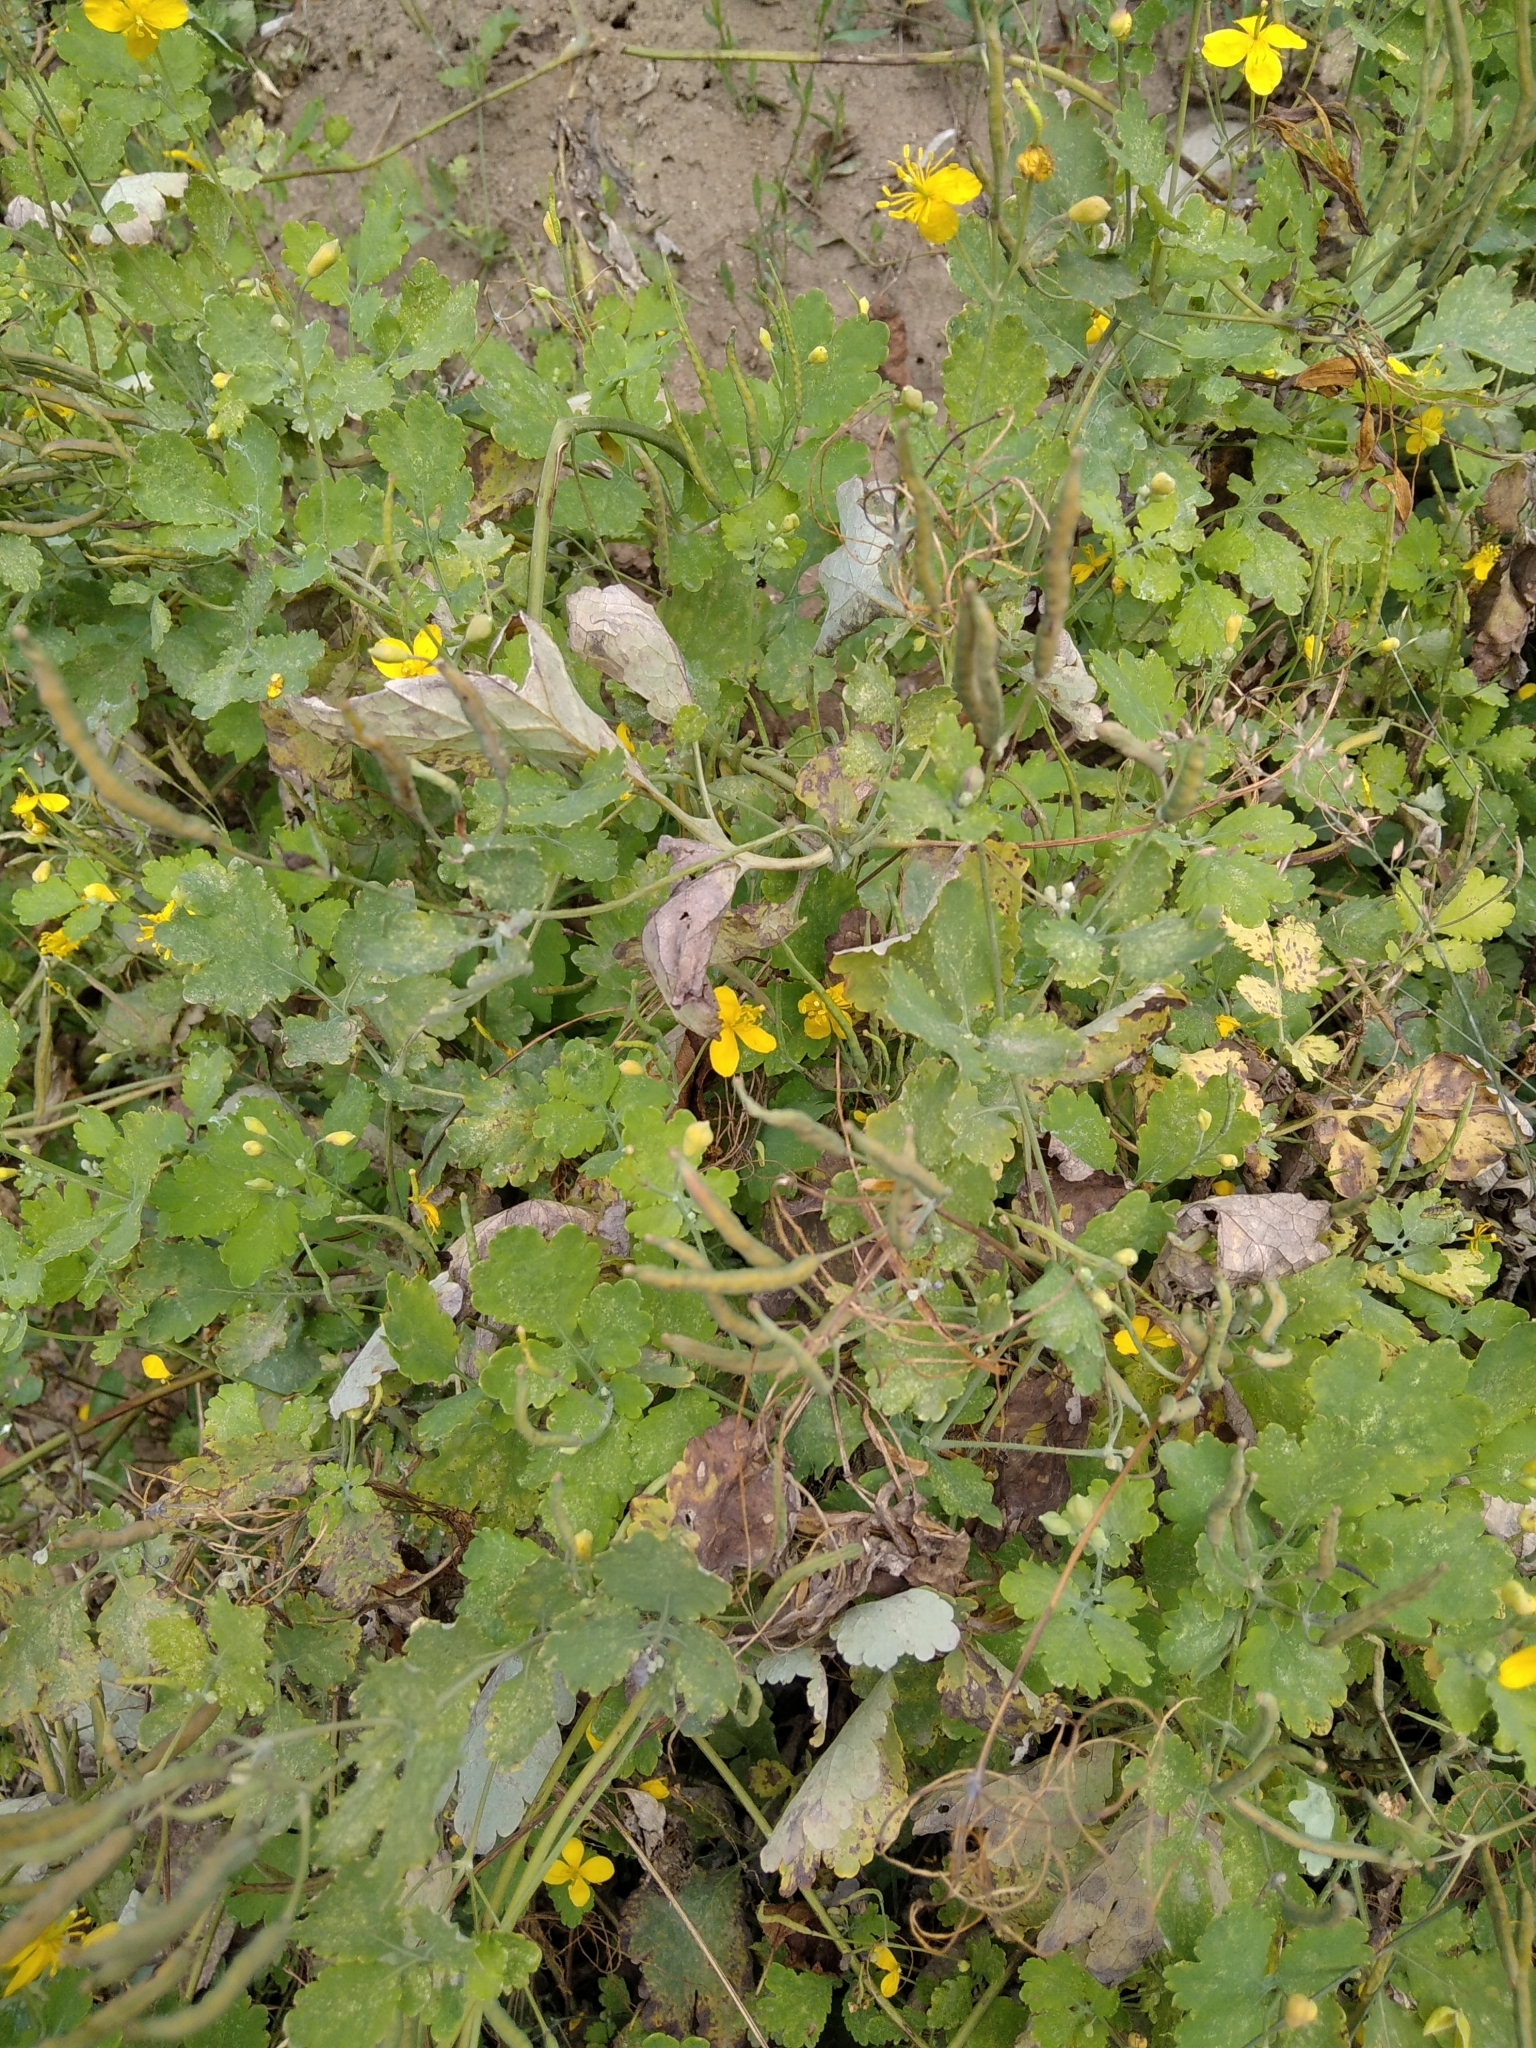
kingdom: Plantae
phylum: Tracheophyta
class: Magnoliopsida
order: Ranunculales
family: Papaveraceae
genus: Chelidonium
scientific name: Chelidonium majus
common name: Greater celandine
